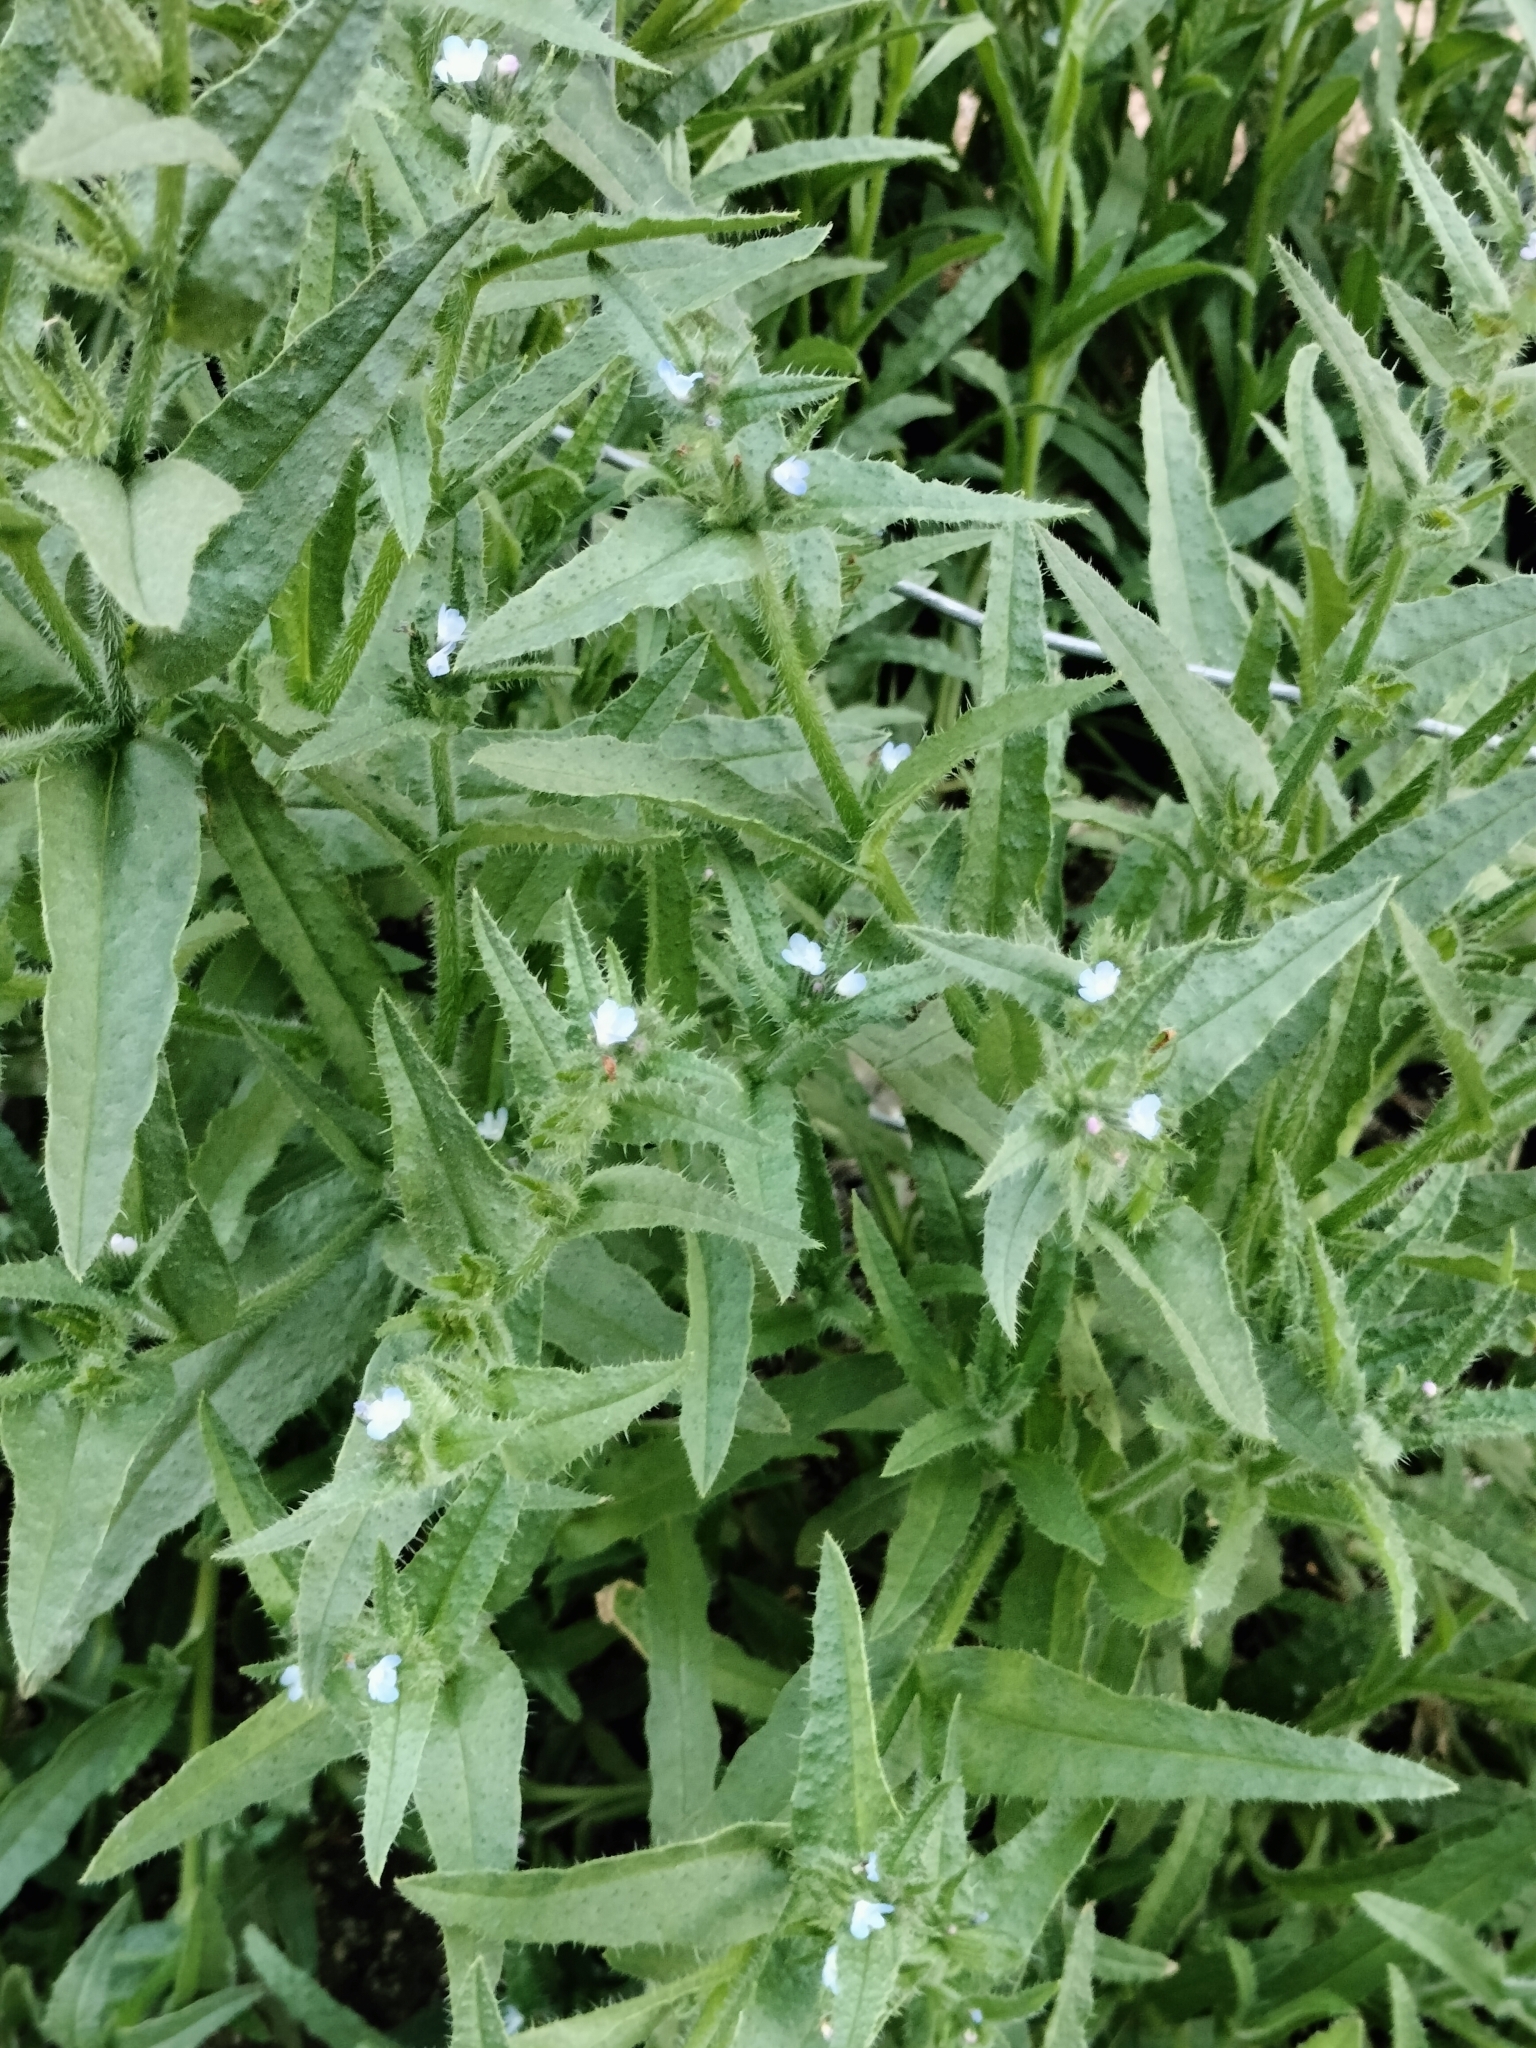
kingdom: Plantae
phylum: Tracheophyta
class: Magnoliopsida
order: Boraginales
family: Boraginaceae
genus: Lycopsis
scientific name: Lycopsis arvensis
